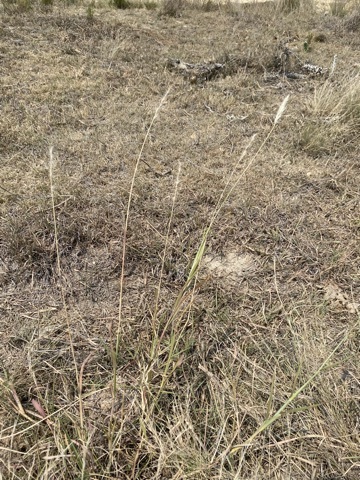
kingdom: Plantae
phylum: Tracheophyta
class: Liliopsida
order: Poales
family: Poaceae
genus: Bothriochloa
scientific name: Bothriochloa torreyana
